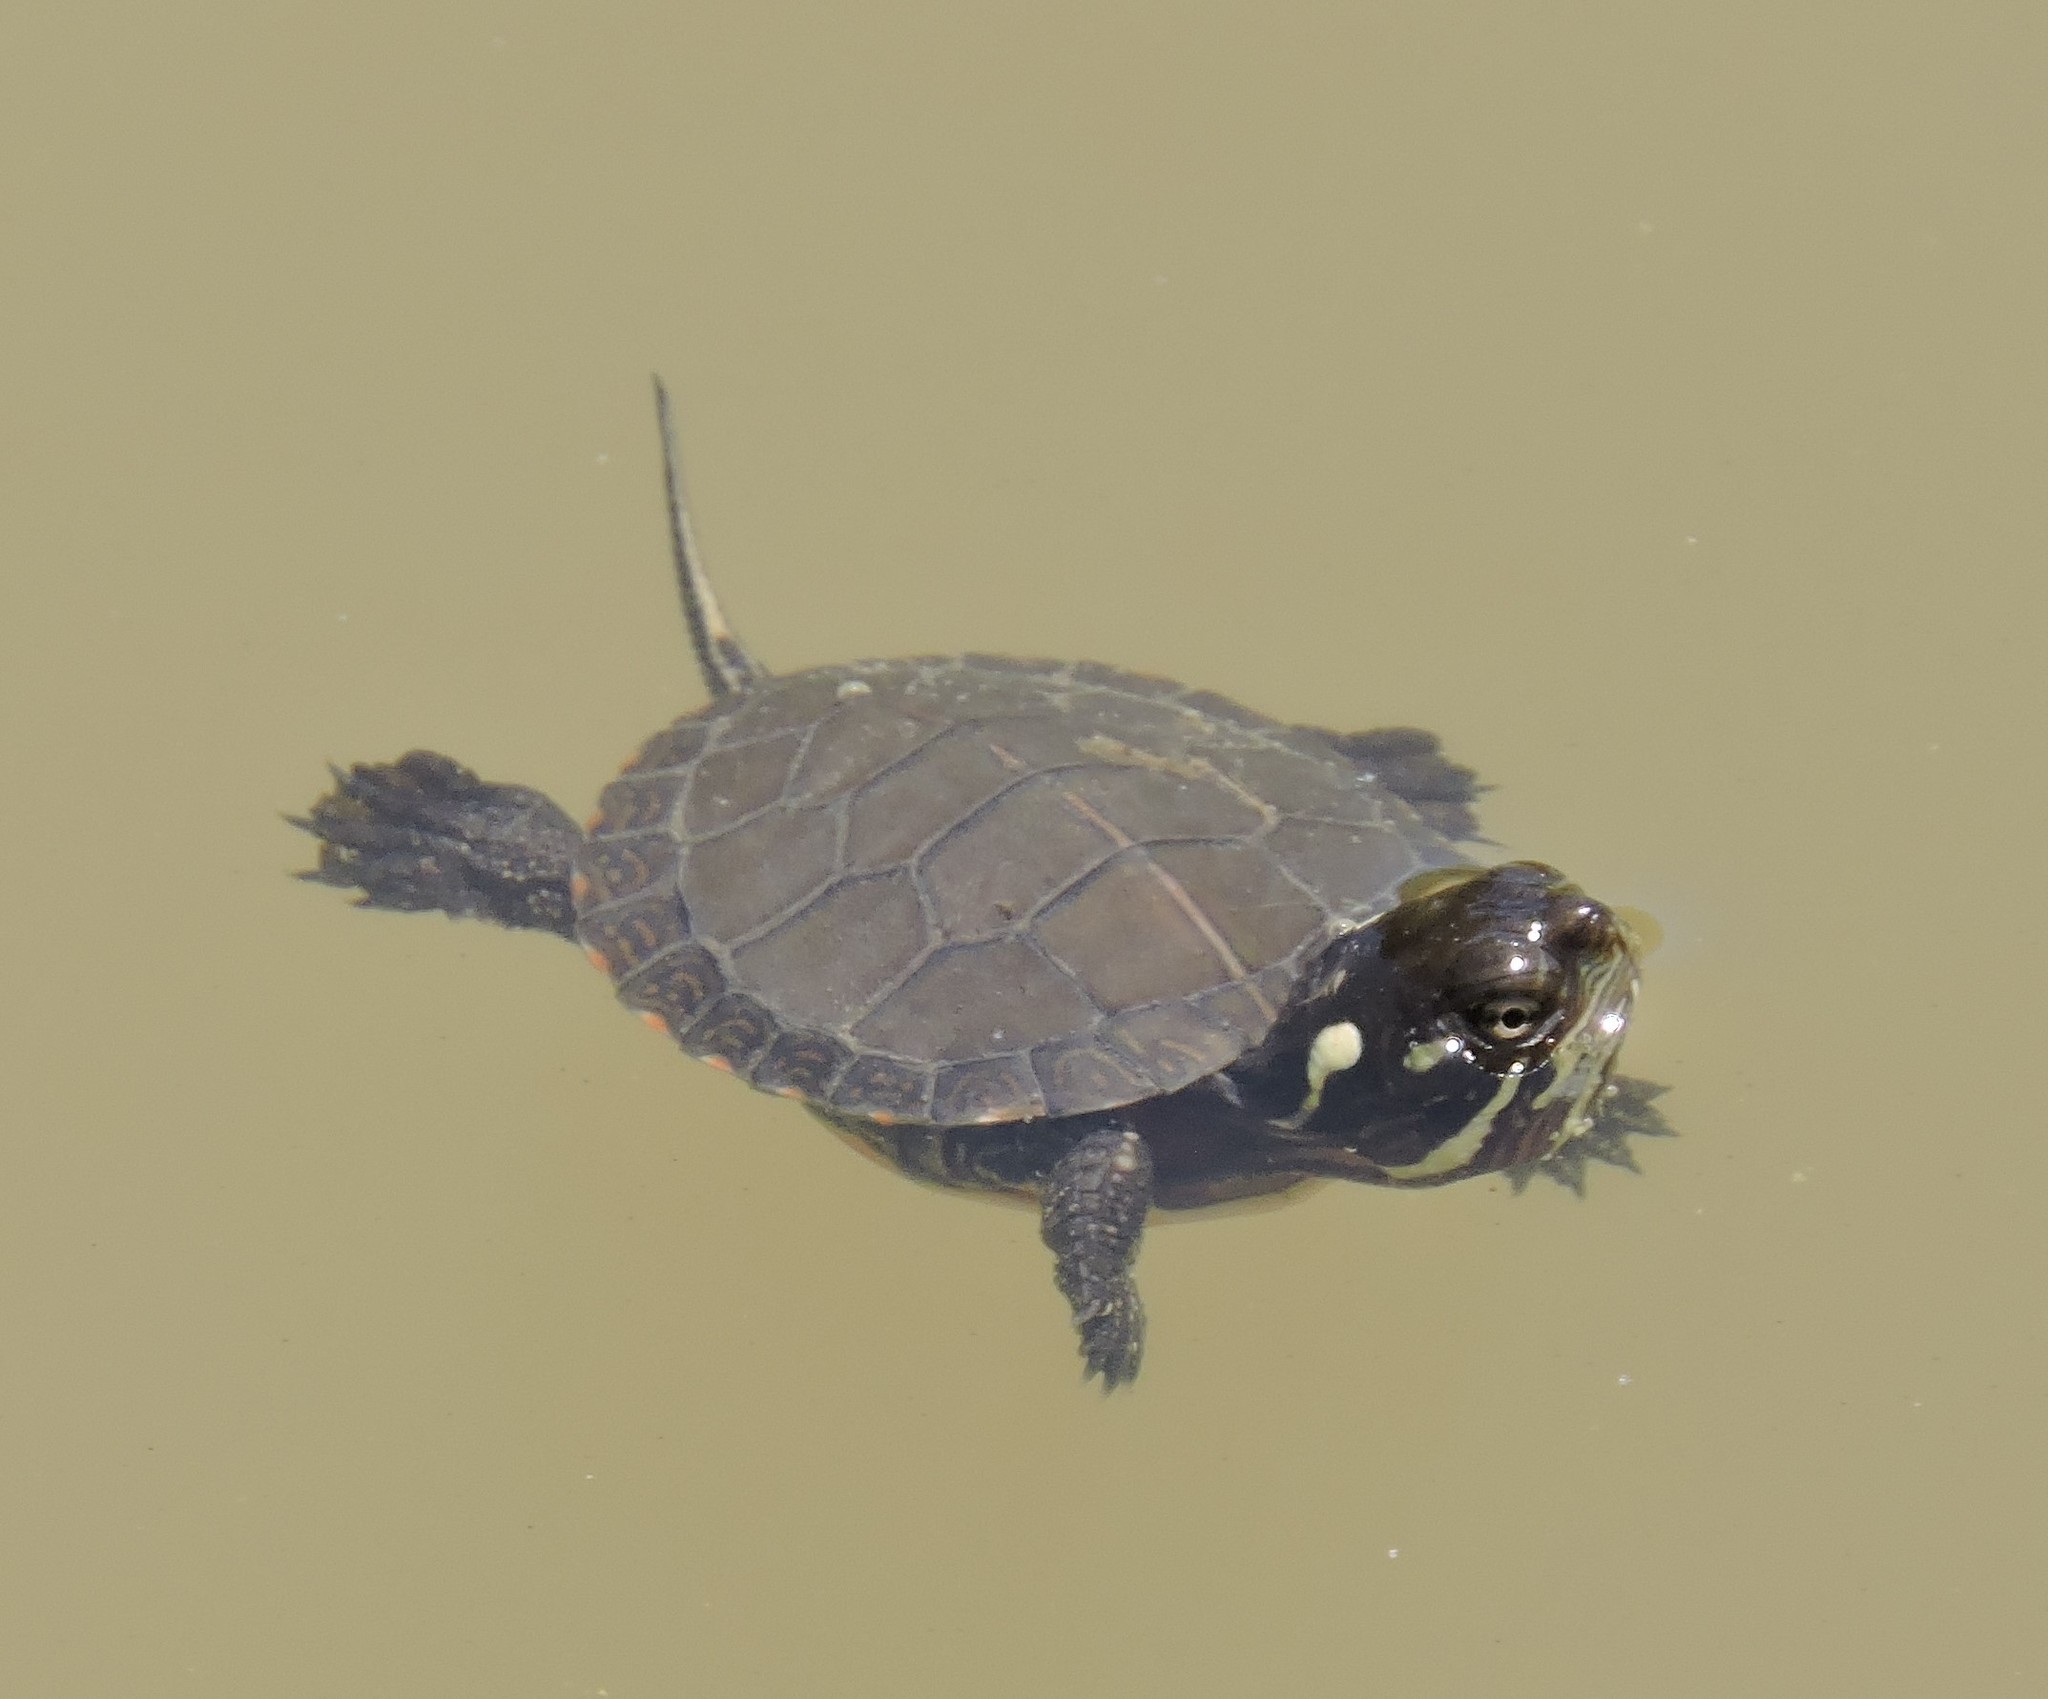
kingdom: Animalia
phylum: Chordata
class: Testudines
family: Emydidae
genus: Chrysemys
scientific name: Chrysemys picta
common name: Painted turtle
